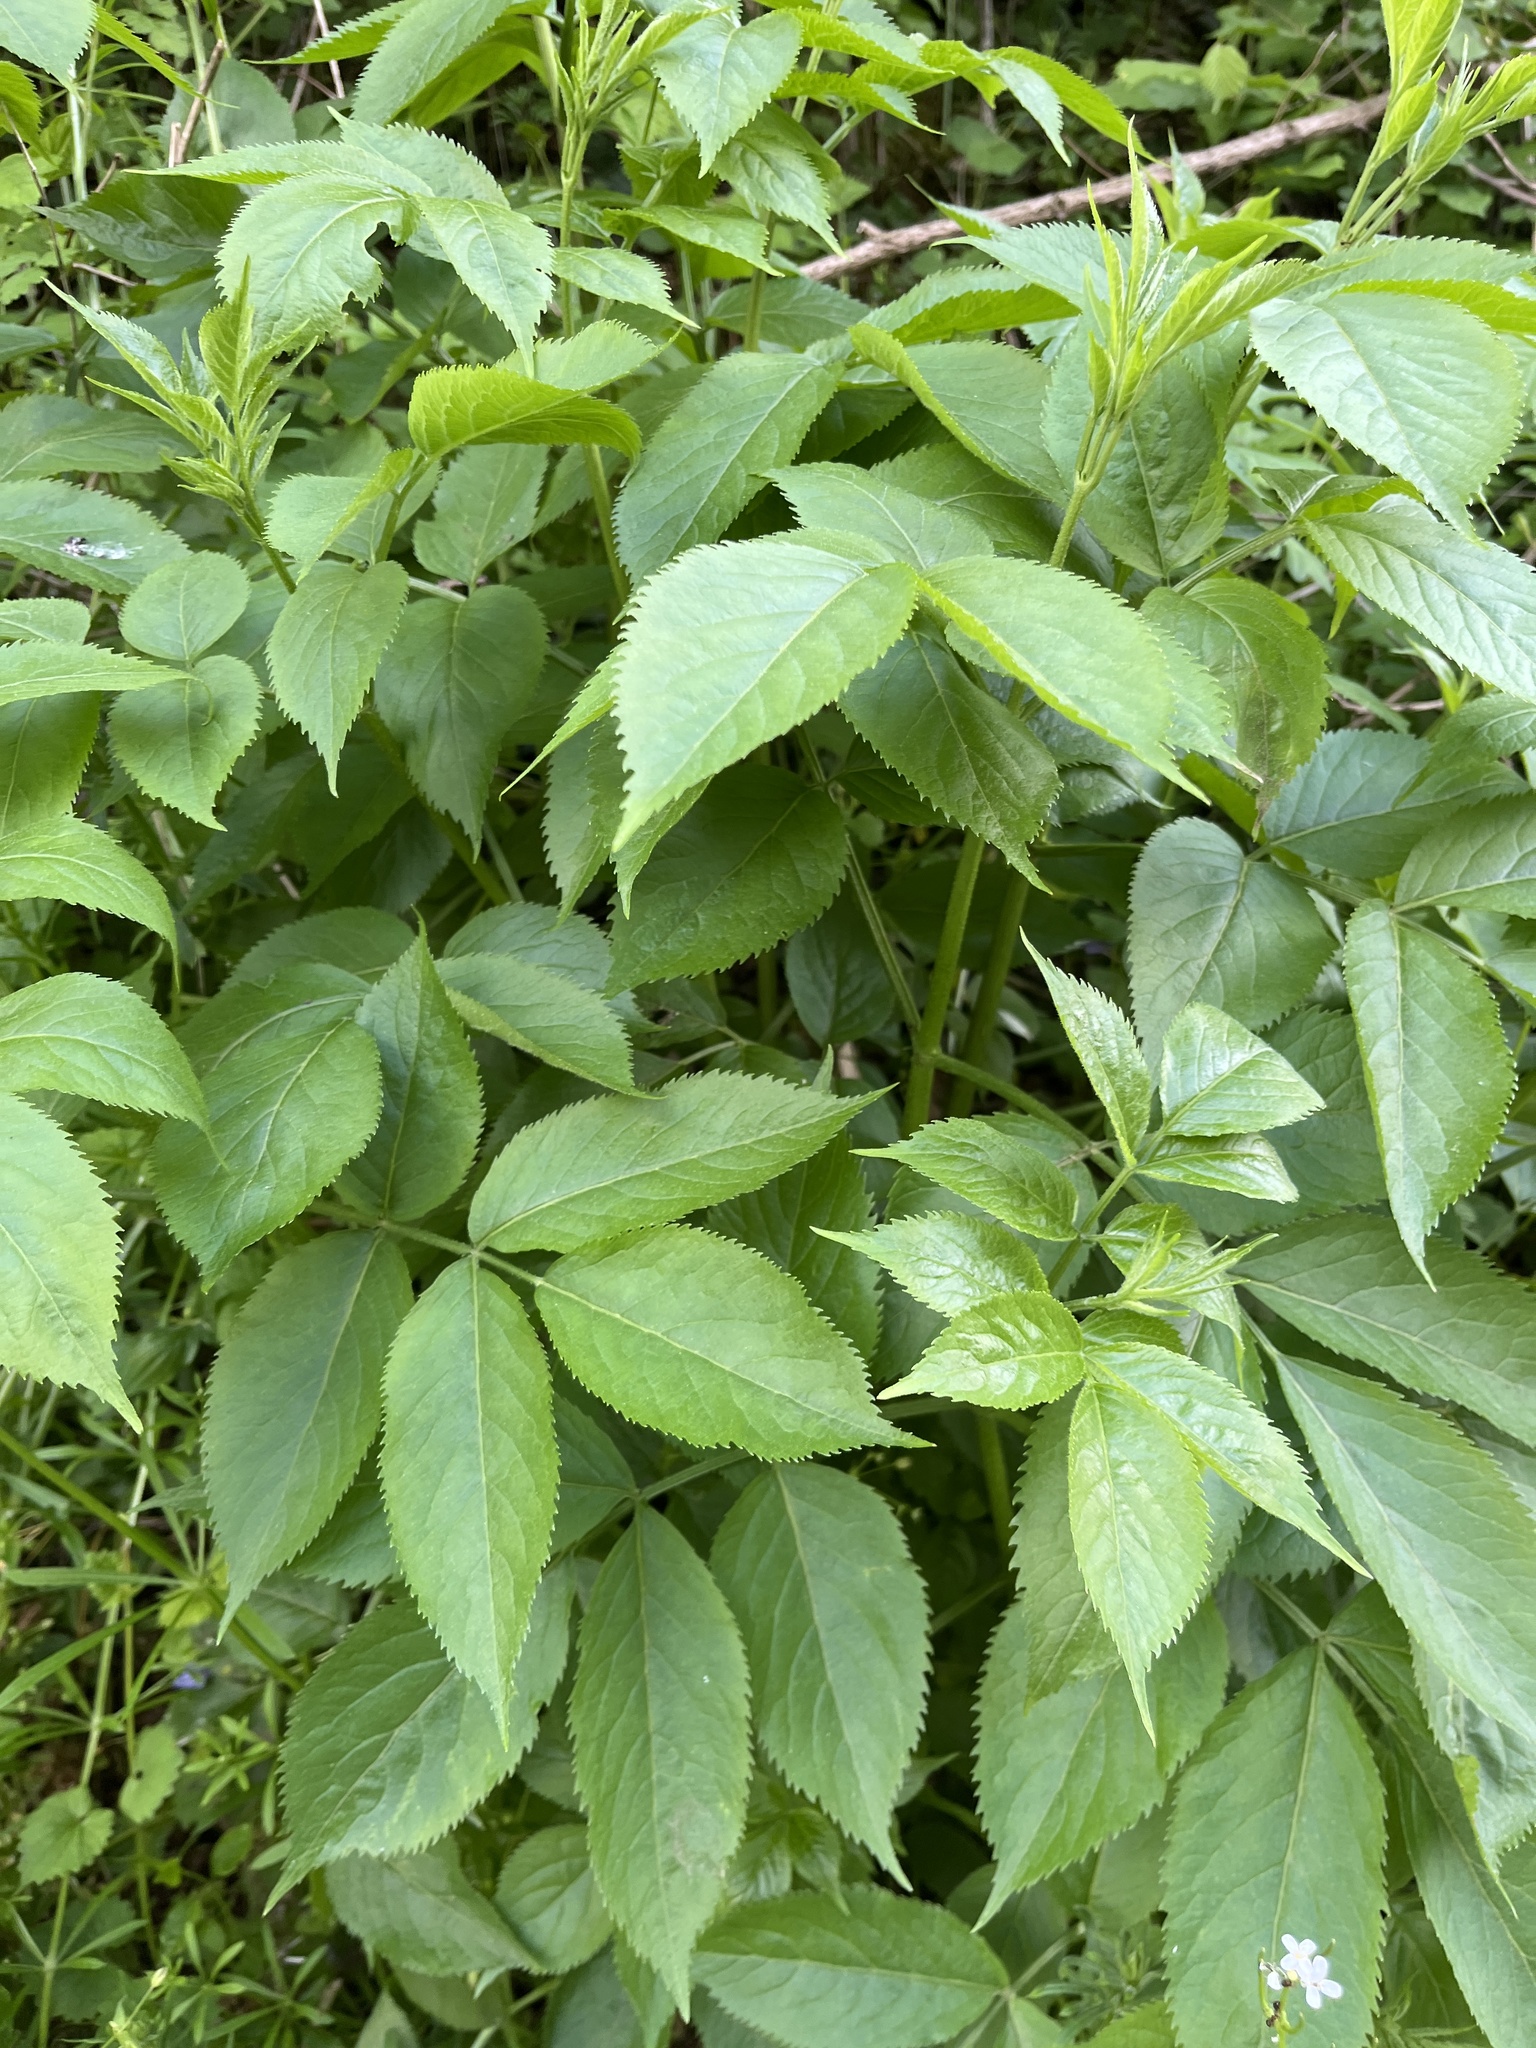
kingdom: Plantae
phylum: Tracheophyta
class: Magnoliopsida
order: Dipsacales
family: Viburnaceae
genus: Sambucus
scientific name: Sambucus nigra
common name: Elder
